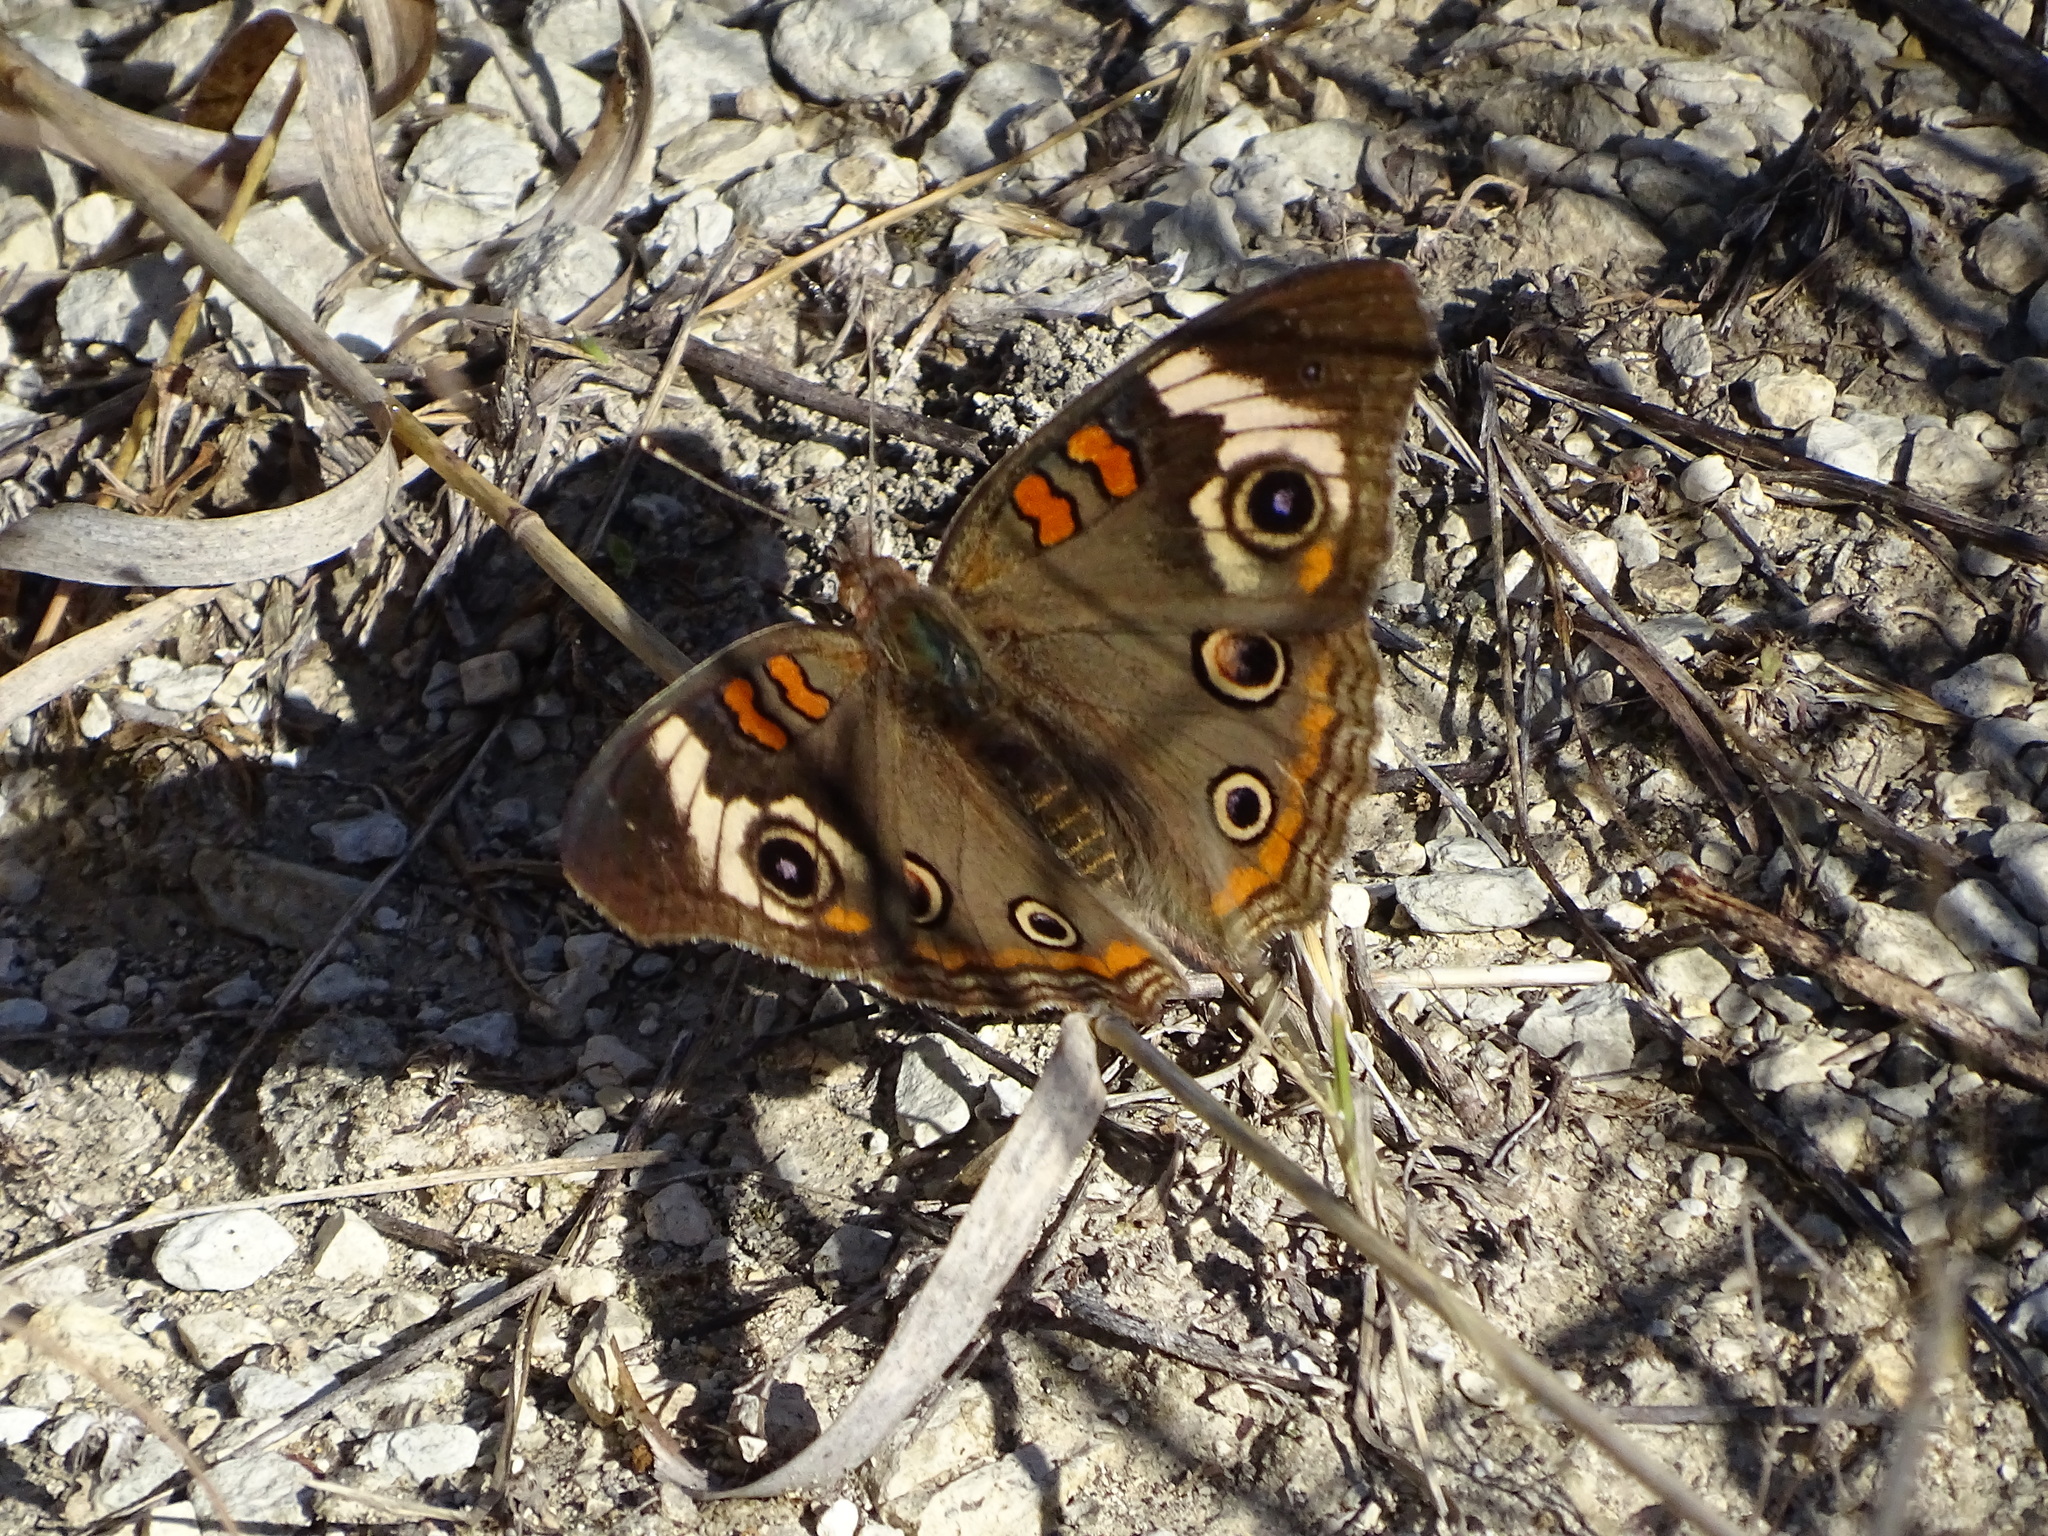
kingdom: Animalia
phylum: Arthropoda
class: Insecta
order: Lepidoptera
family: Nymphalidae
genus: Junonia
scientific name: Junonia coenia
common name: Common buckeye
